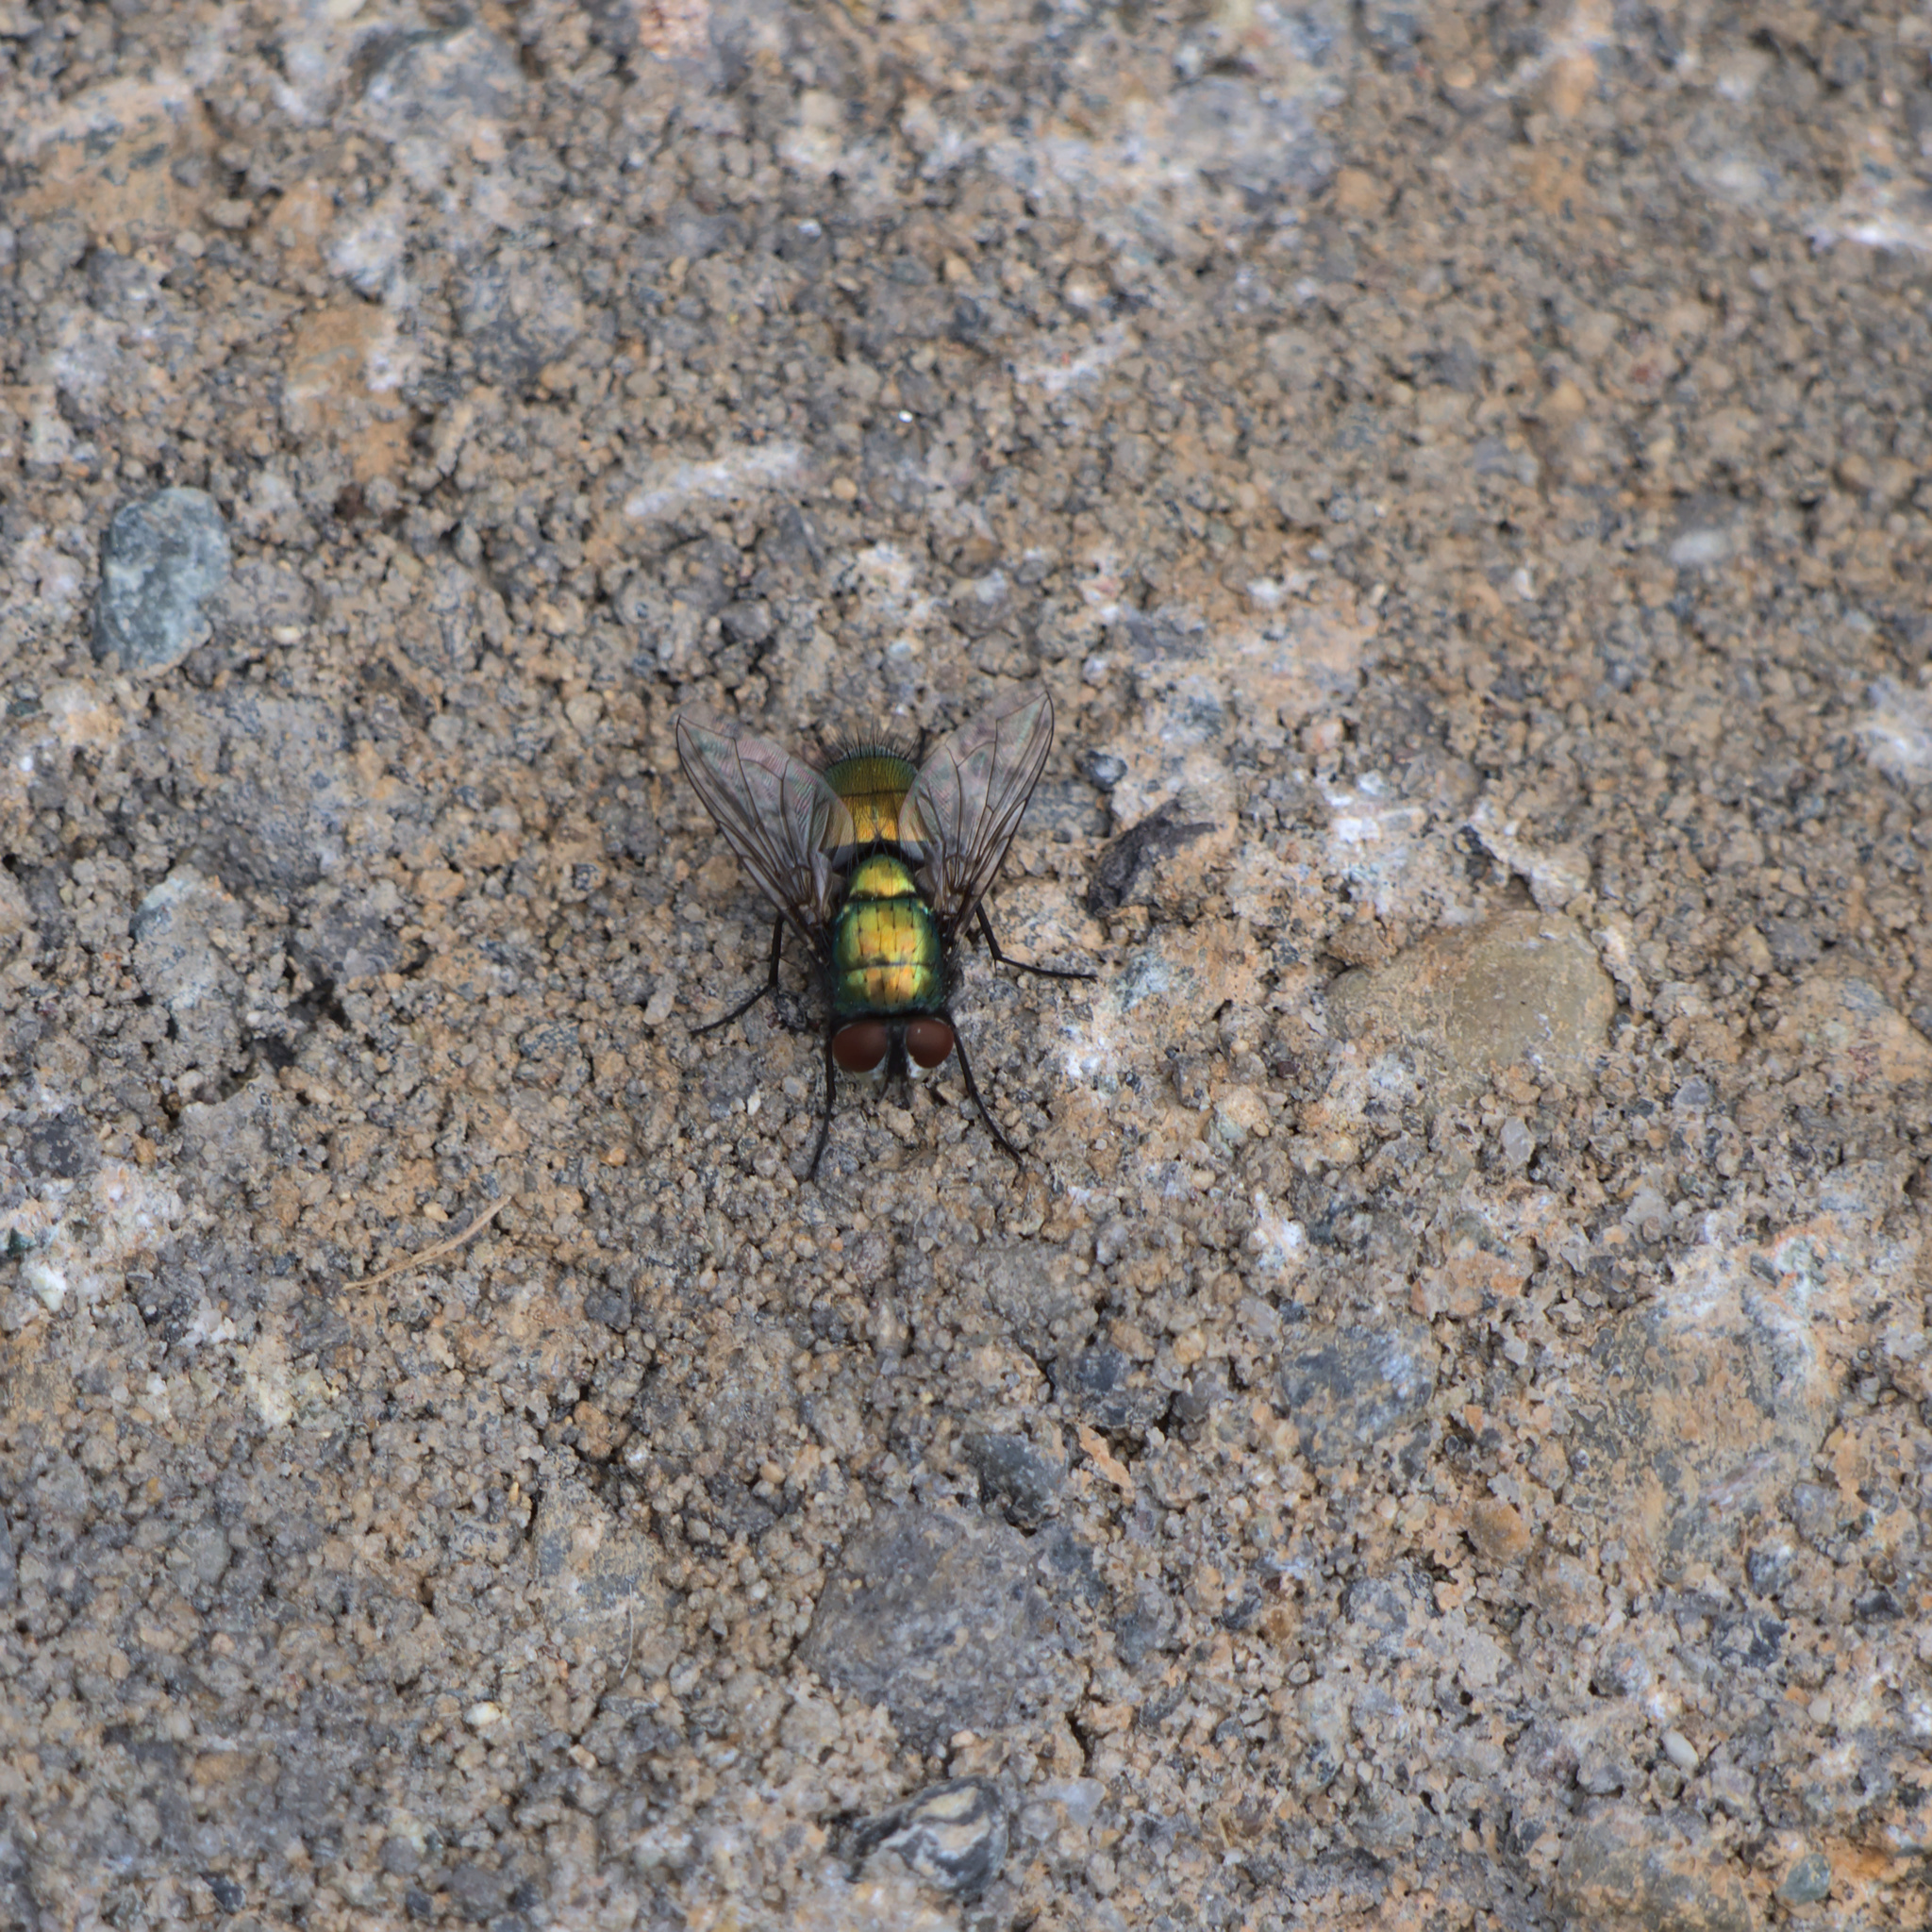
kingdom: Animalia
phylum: Arthropoda
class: Insecta
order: Diptera
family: Calliphoridae
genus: Lucilia
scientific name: Lucilia sericata
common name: Blow fly
